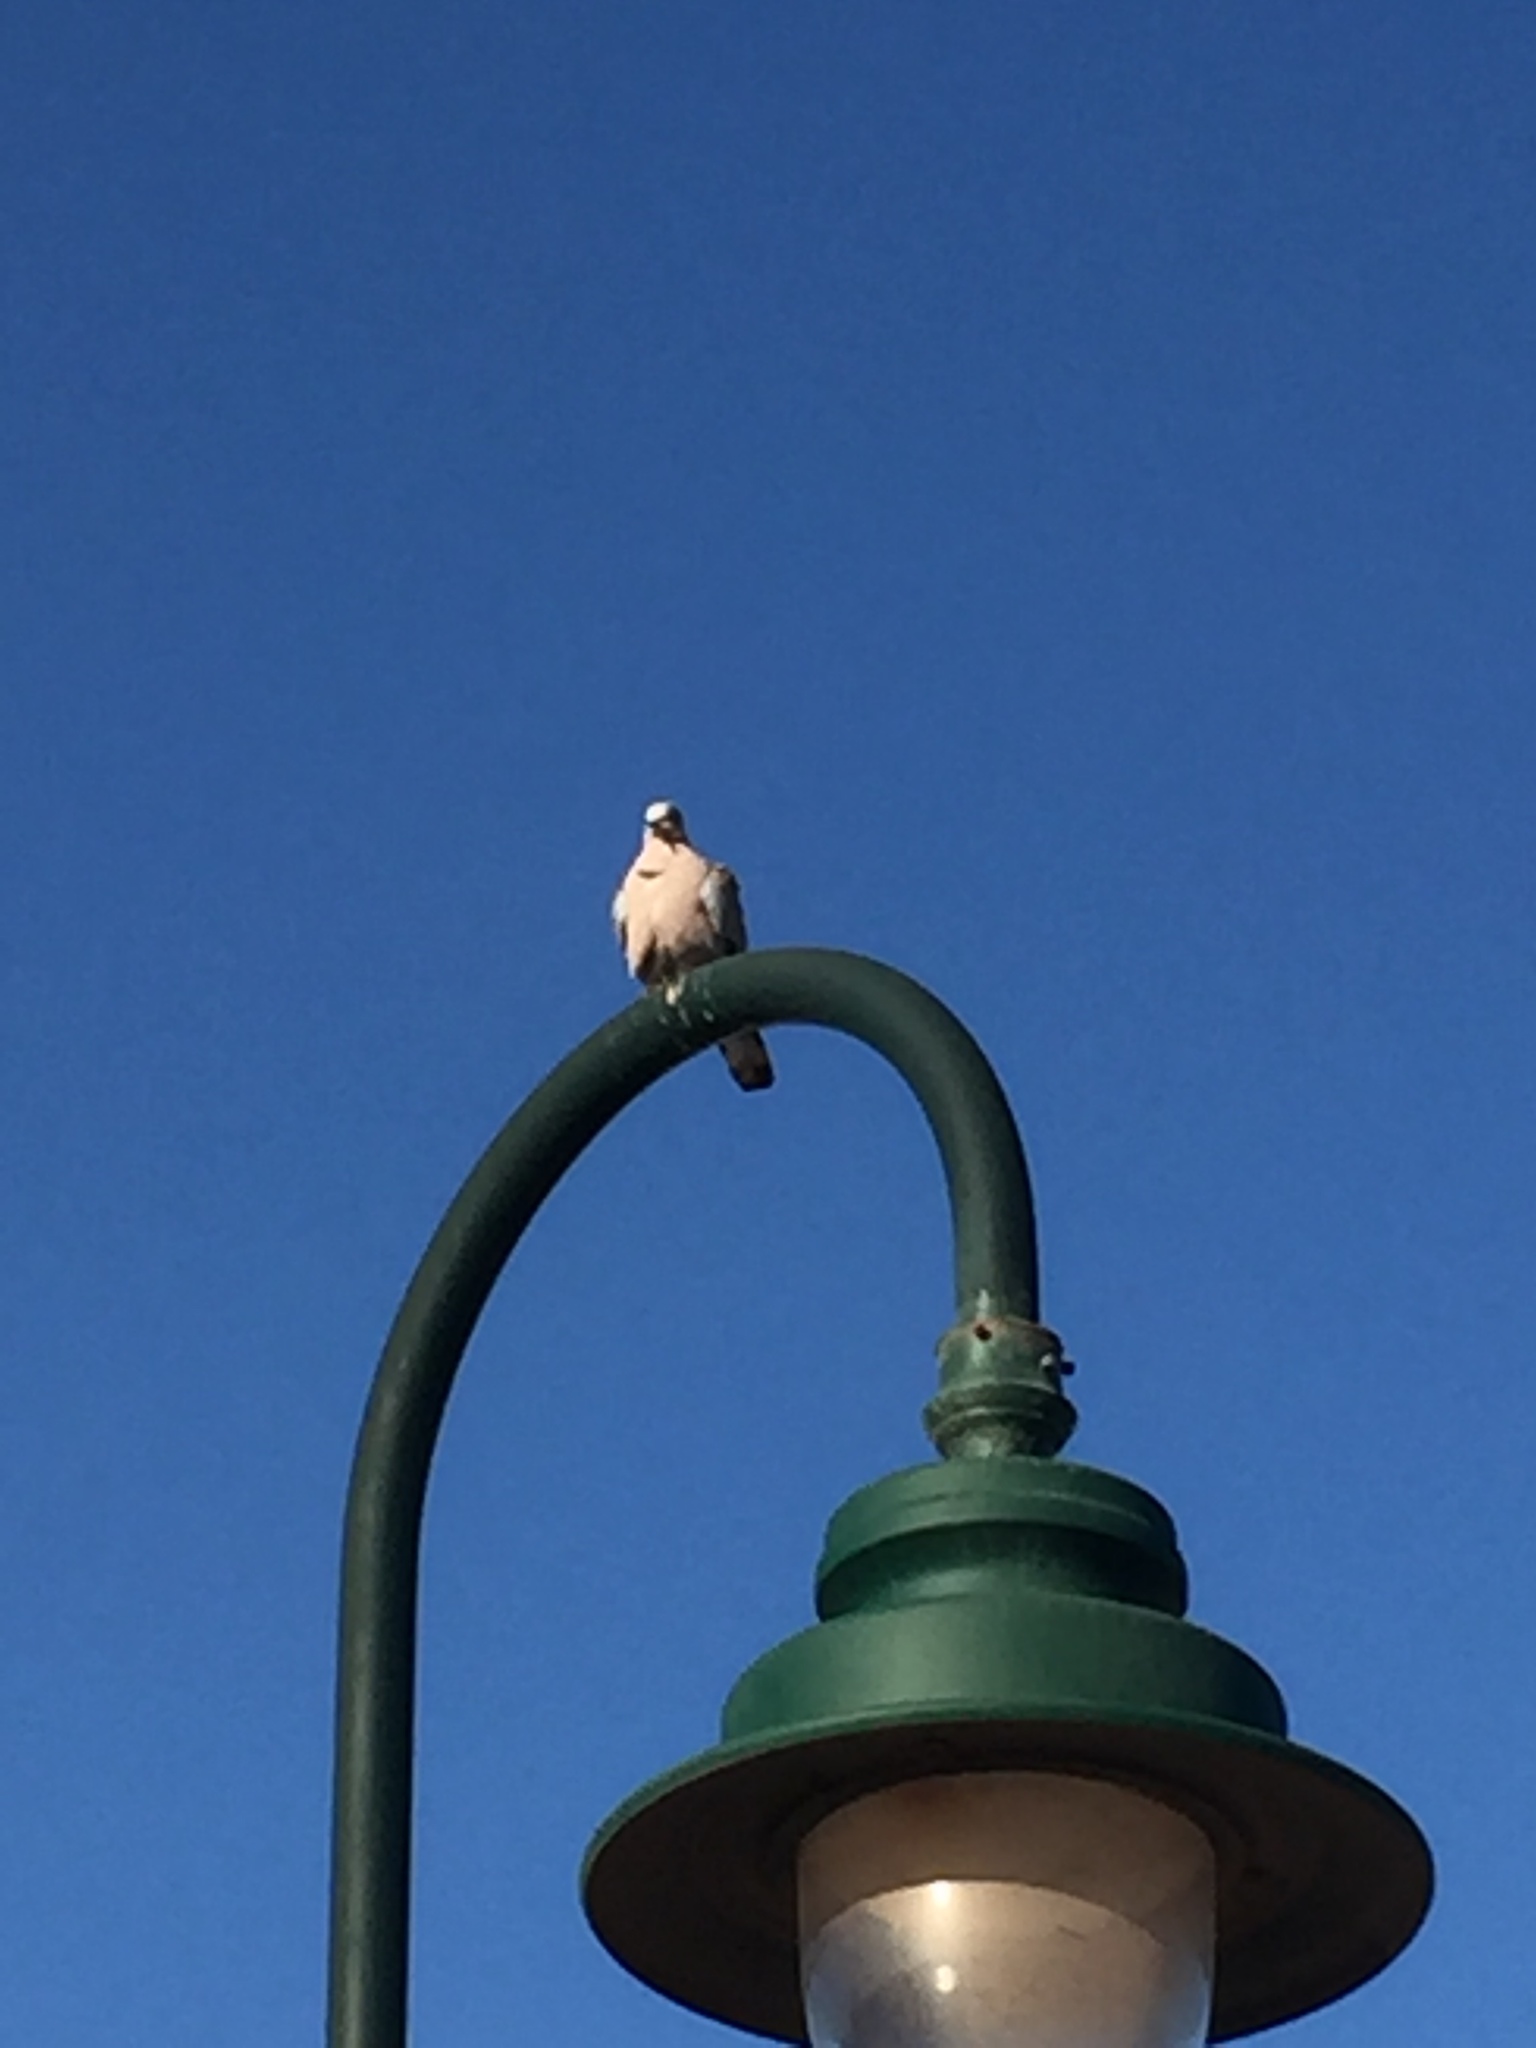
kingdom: Animalia
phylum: Chordata
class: Aves
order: Columbiformes
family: Columbidae
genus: Streptopelia
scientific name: Streptopelia decaocto
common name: Eurasian collared dove
